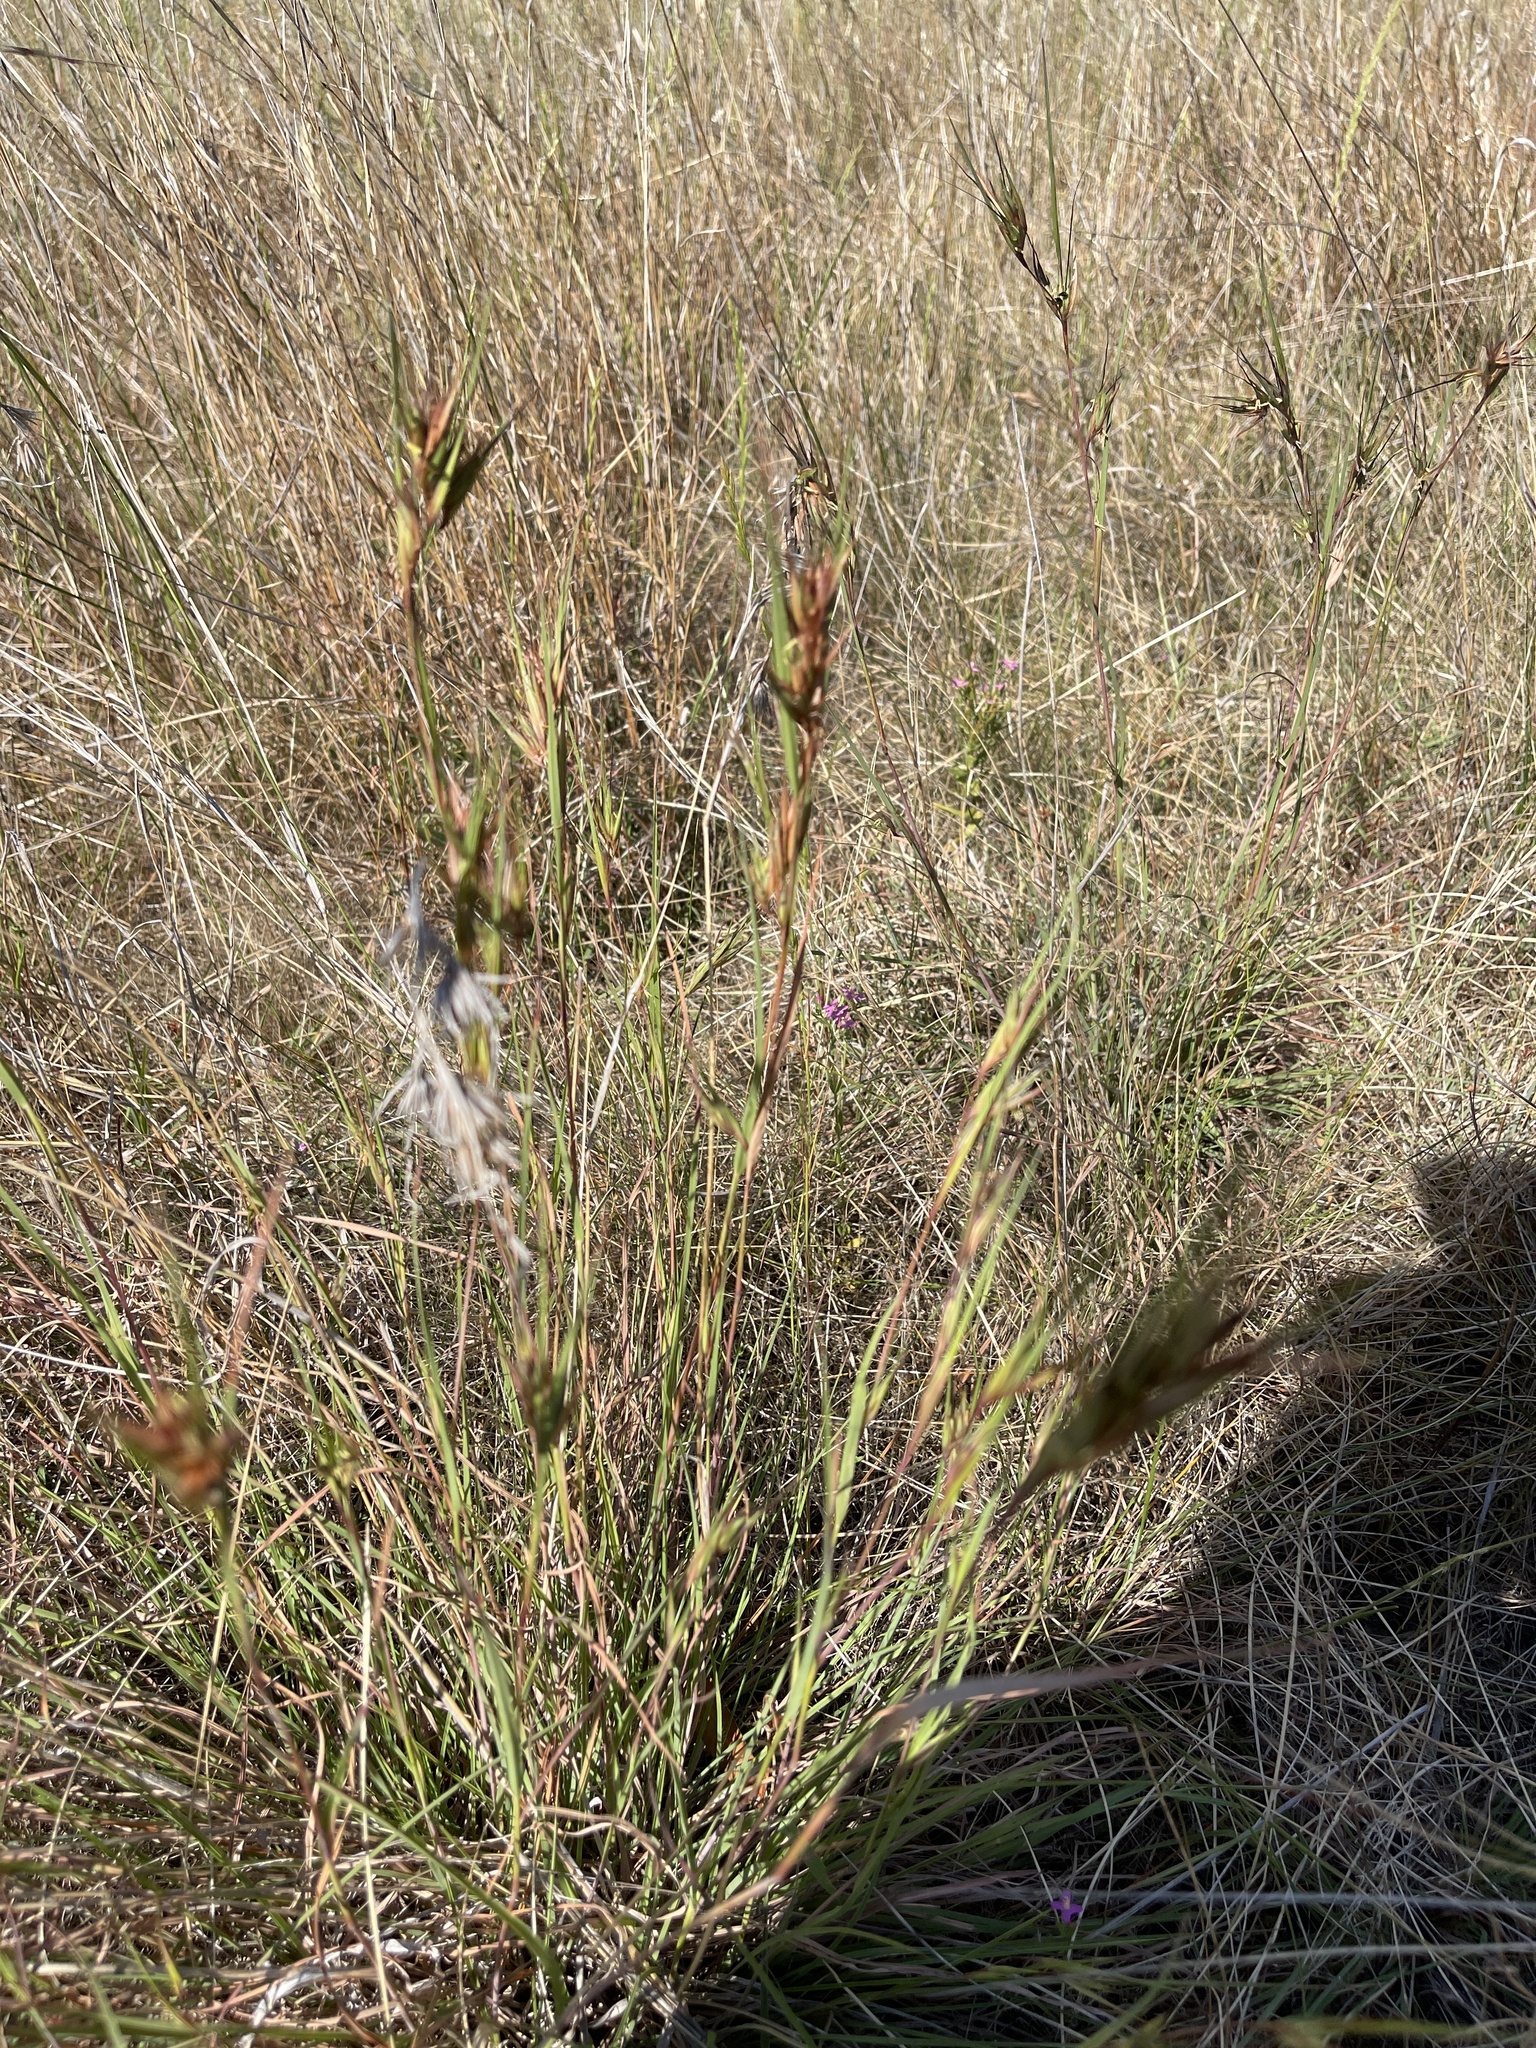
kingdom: Plantae
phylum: Tracheophyta
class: Liliopsida
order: Poales
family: Poaceae
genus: Themeda
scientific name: Themeda triandra
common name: Kangaroo grass
